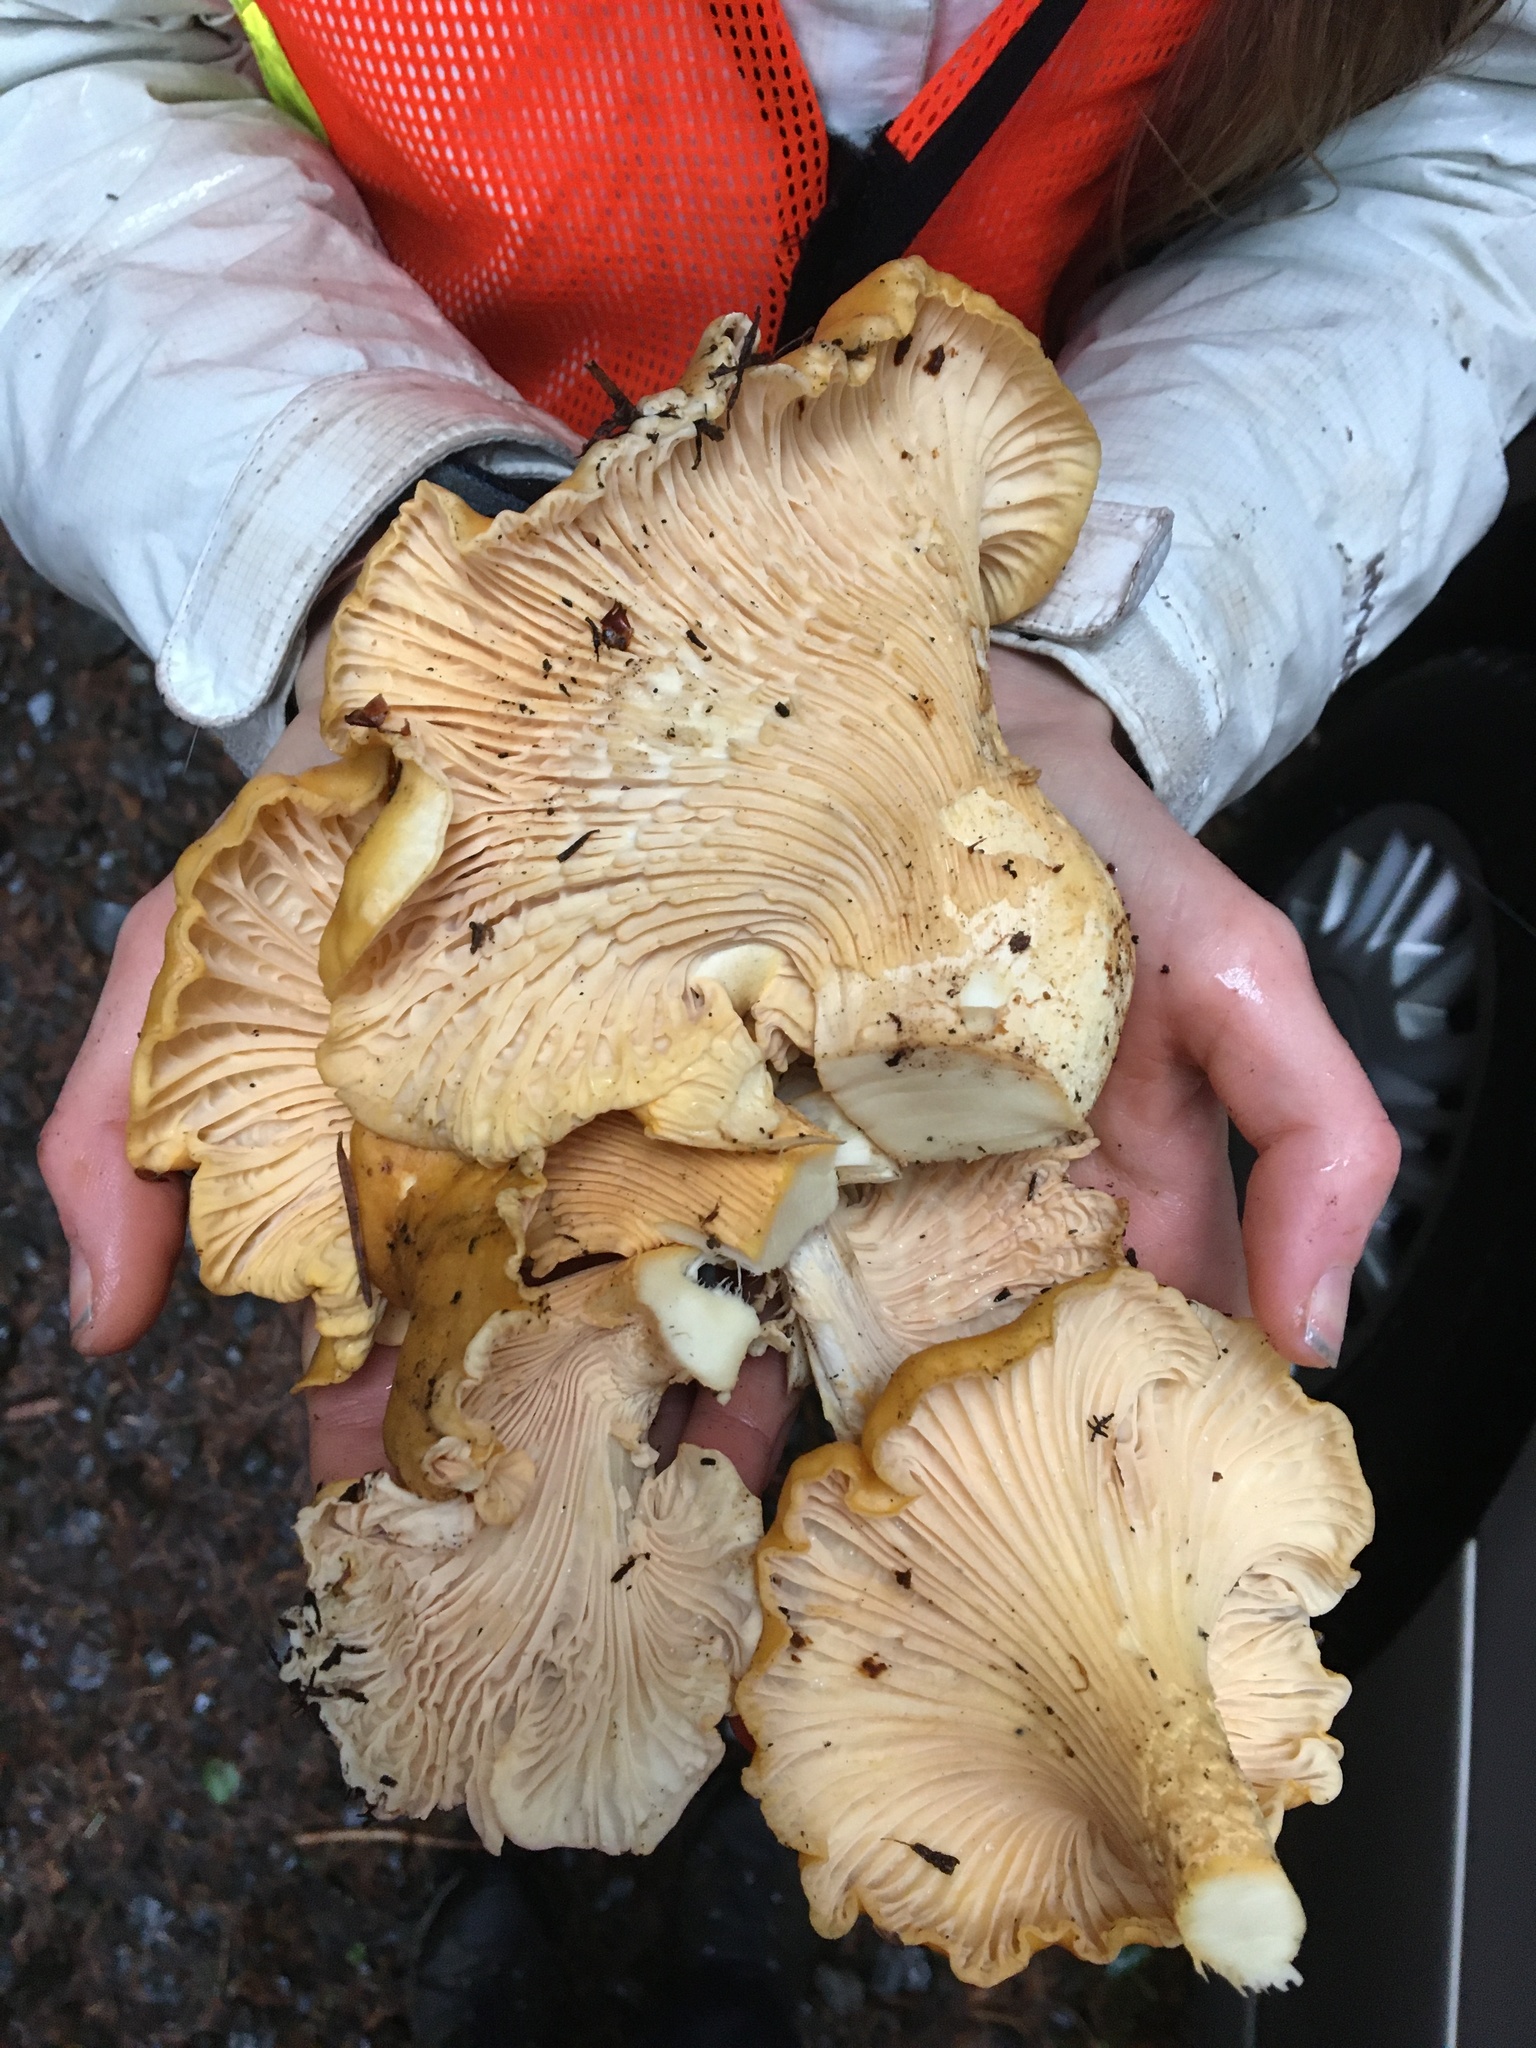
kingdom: Fungi
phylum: Basidiomycota
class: Agaricomycetes
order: Cantharellales
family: Hydnaceae
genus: Cantharellus
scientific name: Cantharellus formosus
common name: Pacific golden chanterelle
